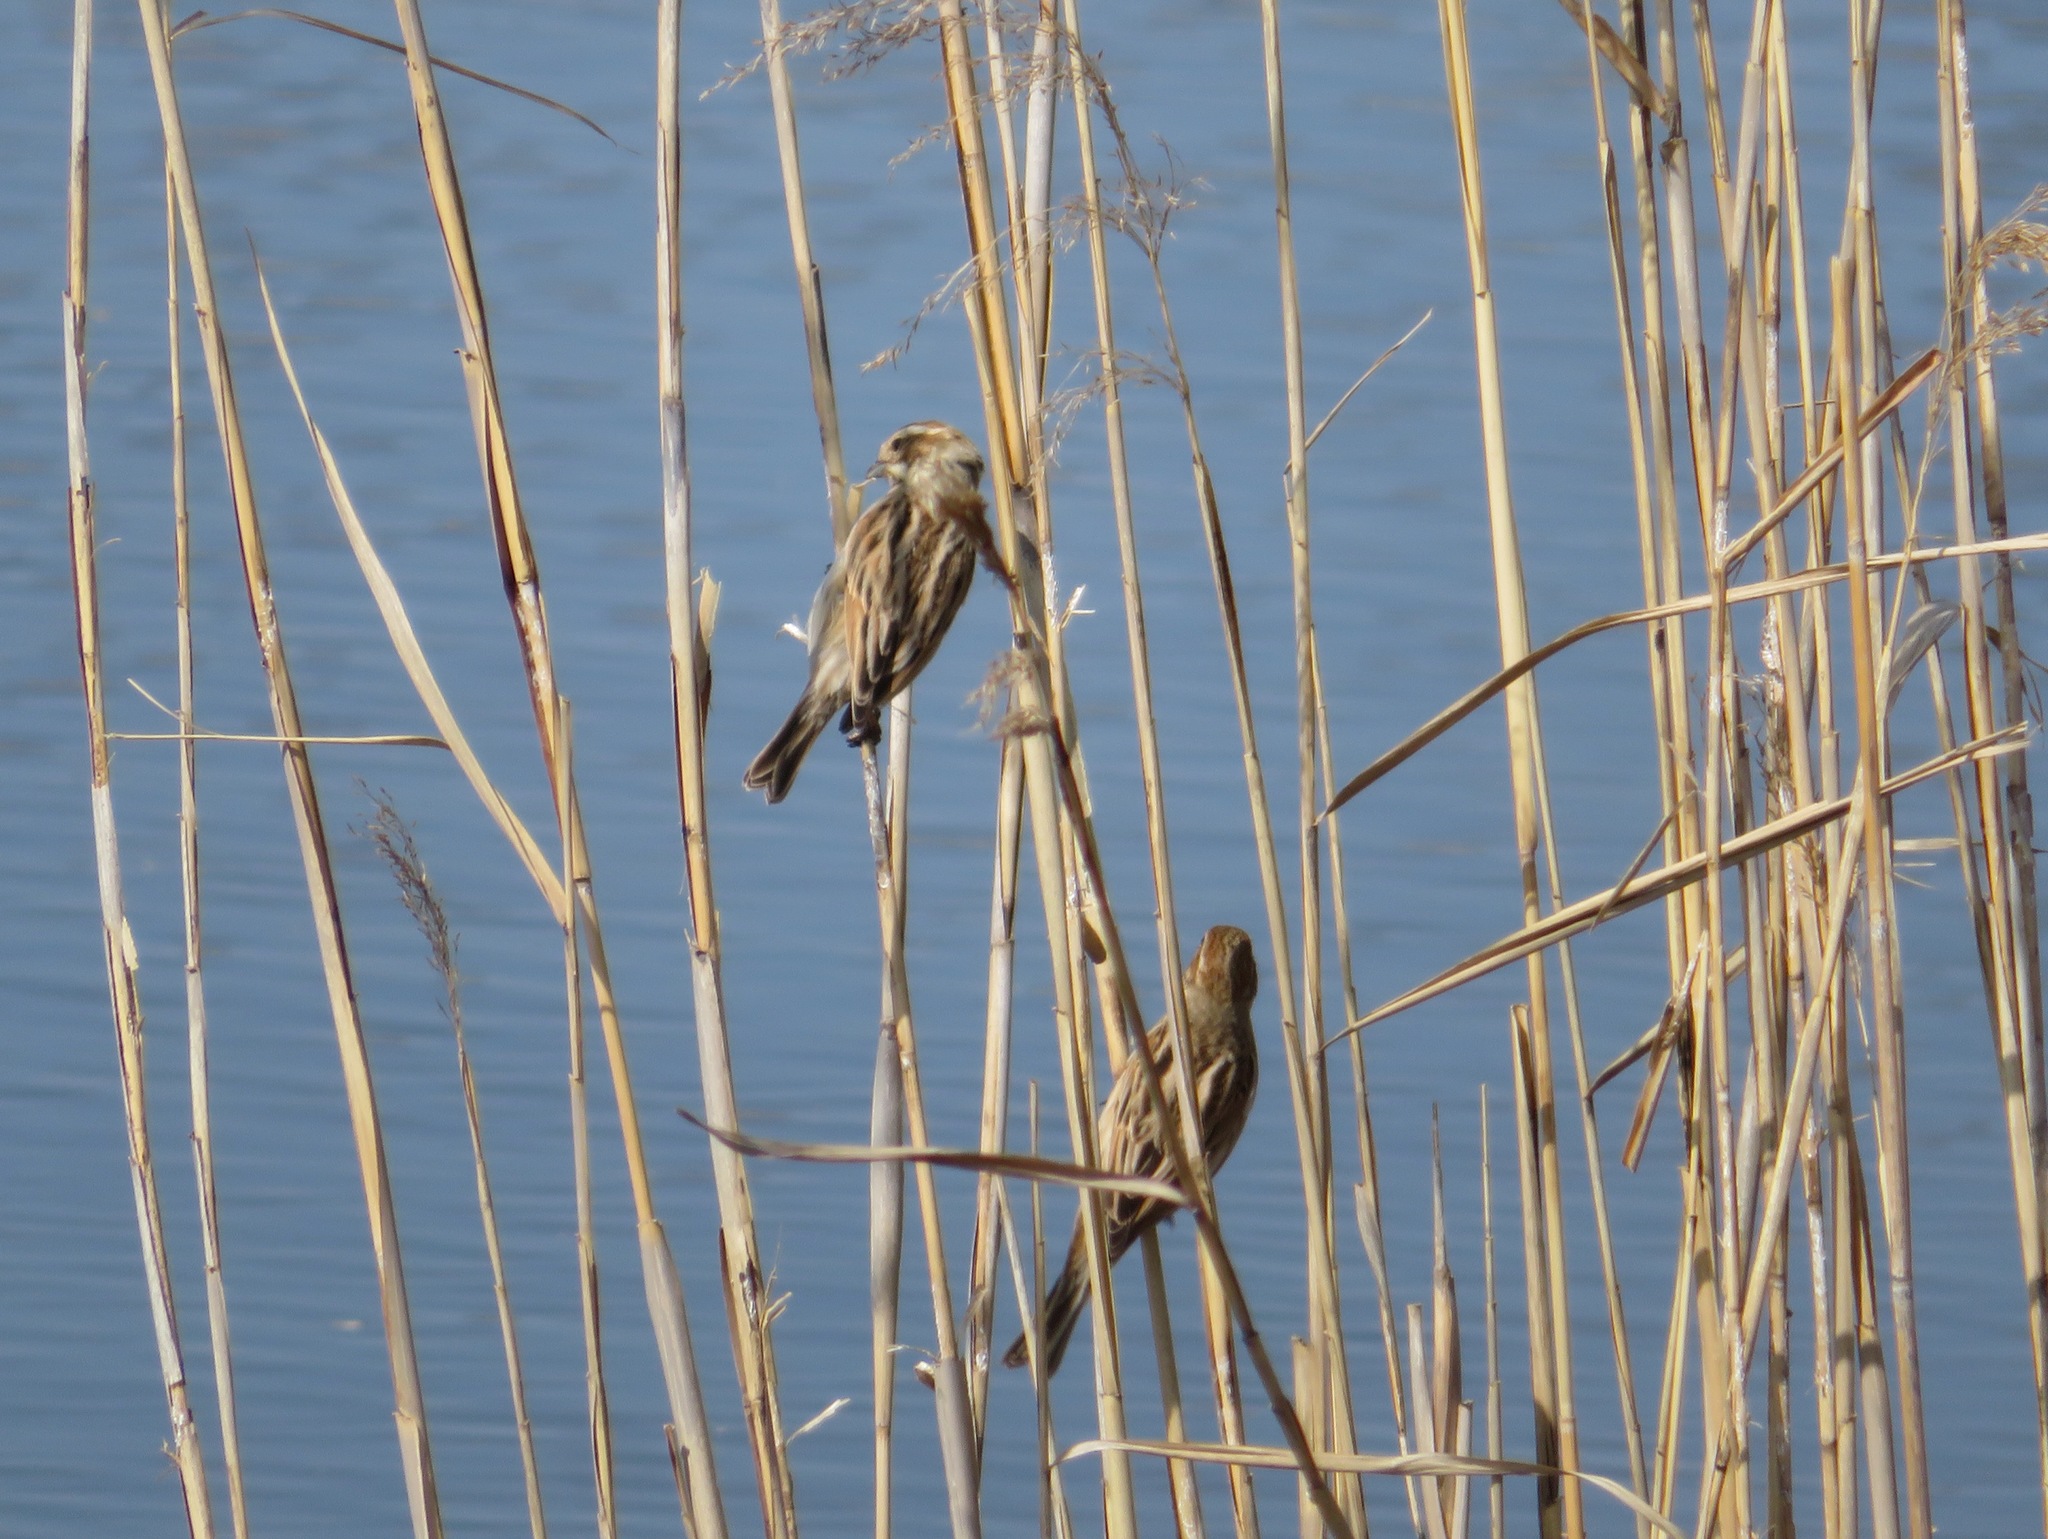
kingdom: Animalia
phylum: Chordata
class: Aves
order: Passeriformes
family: Emberizidae
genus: Emberiza
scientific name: Emberiza schoeniclus
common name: Reed bunting
